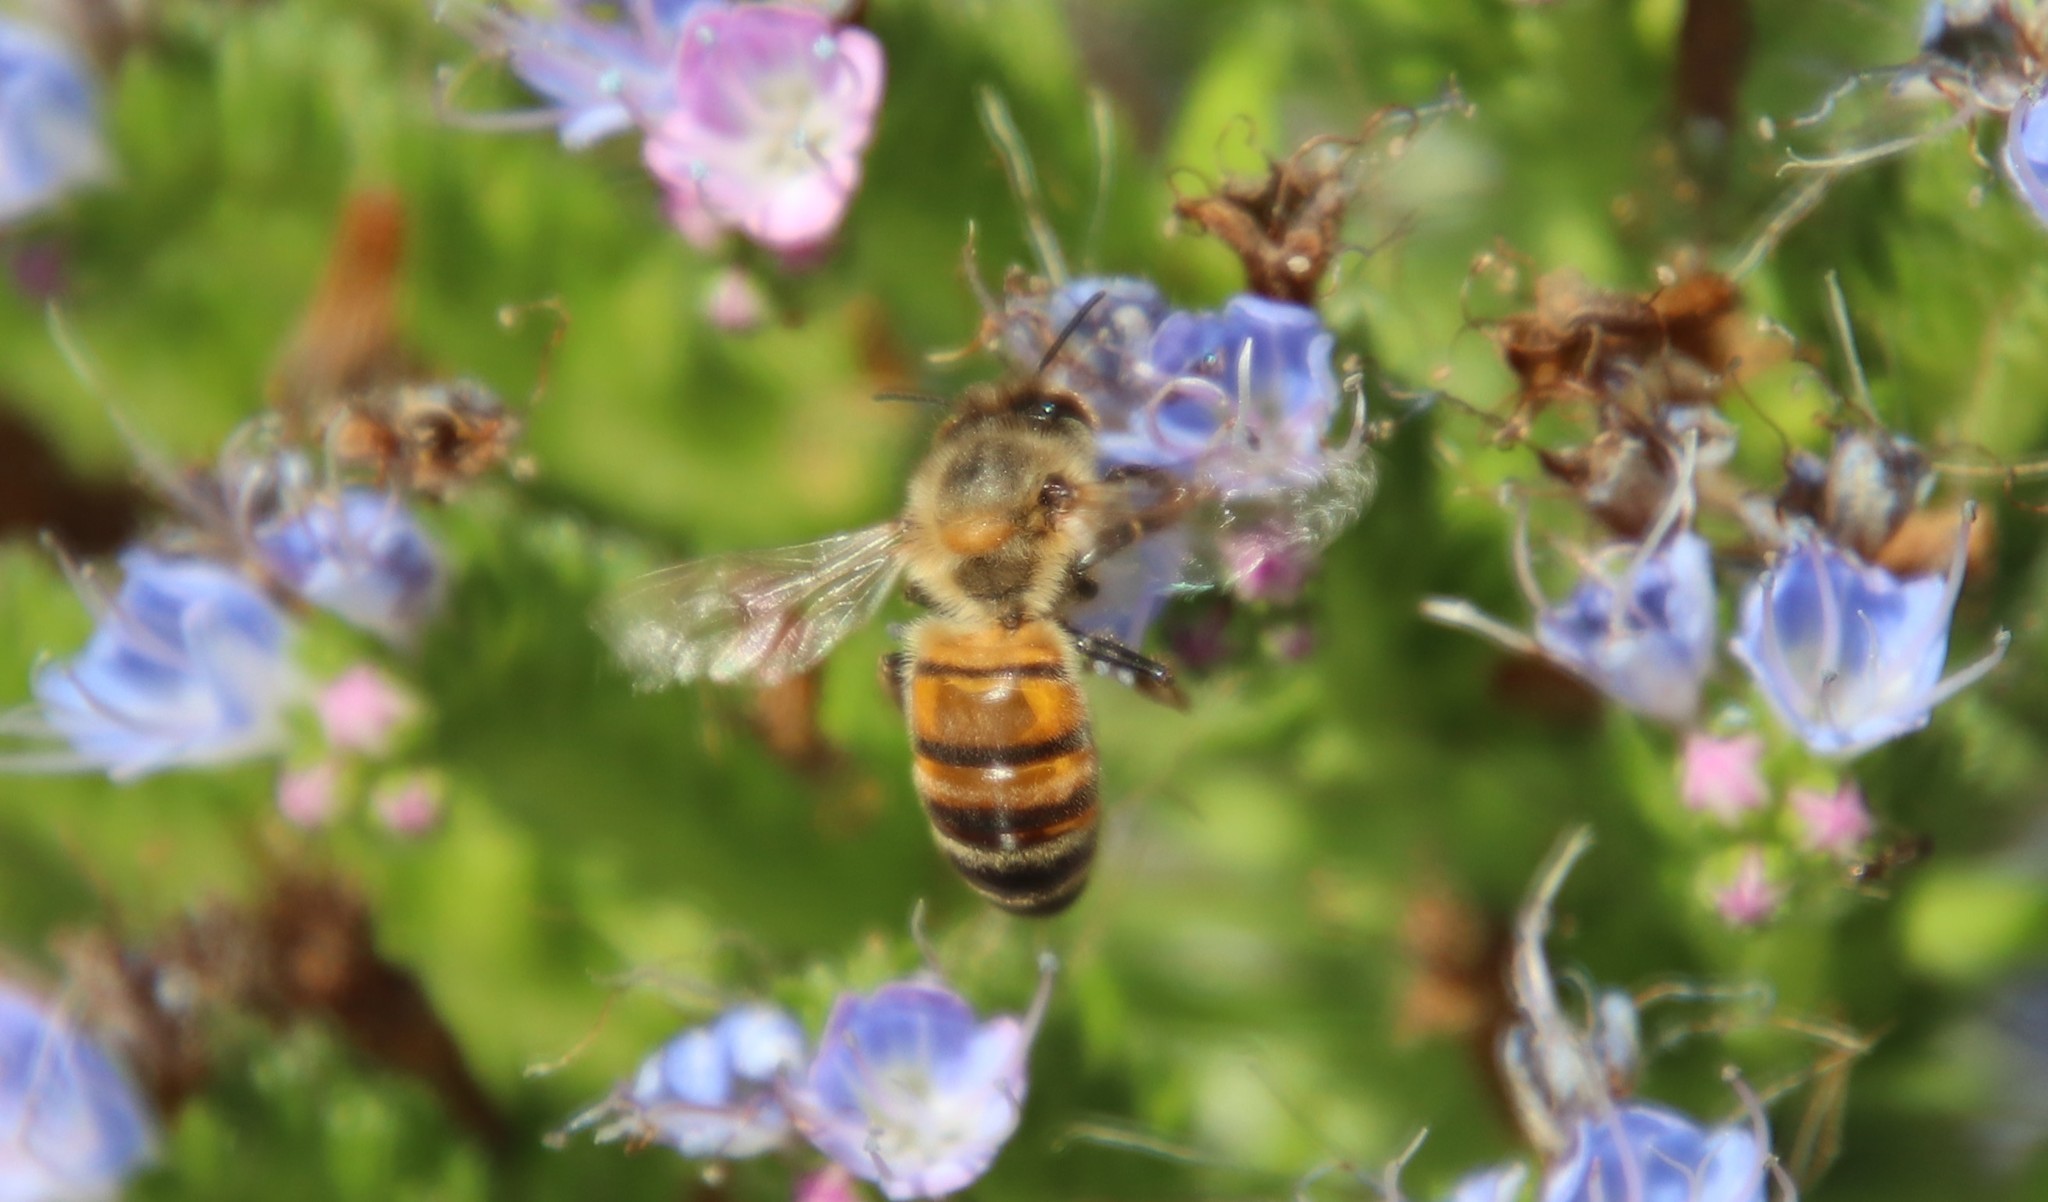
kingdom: Animalia
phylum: Arthropoda
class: Insecta
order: Hymenoptera
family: Apidae
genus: Apis
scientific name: Apis mellifera
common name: Honey bee
